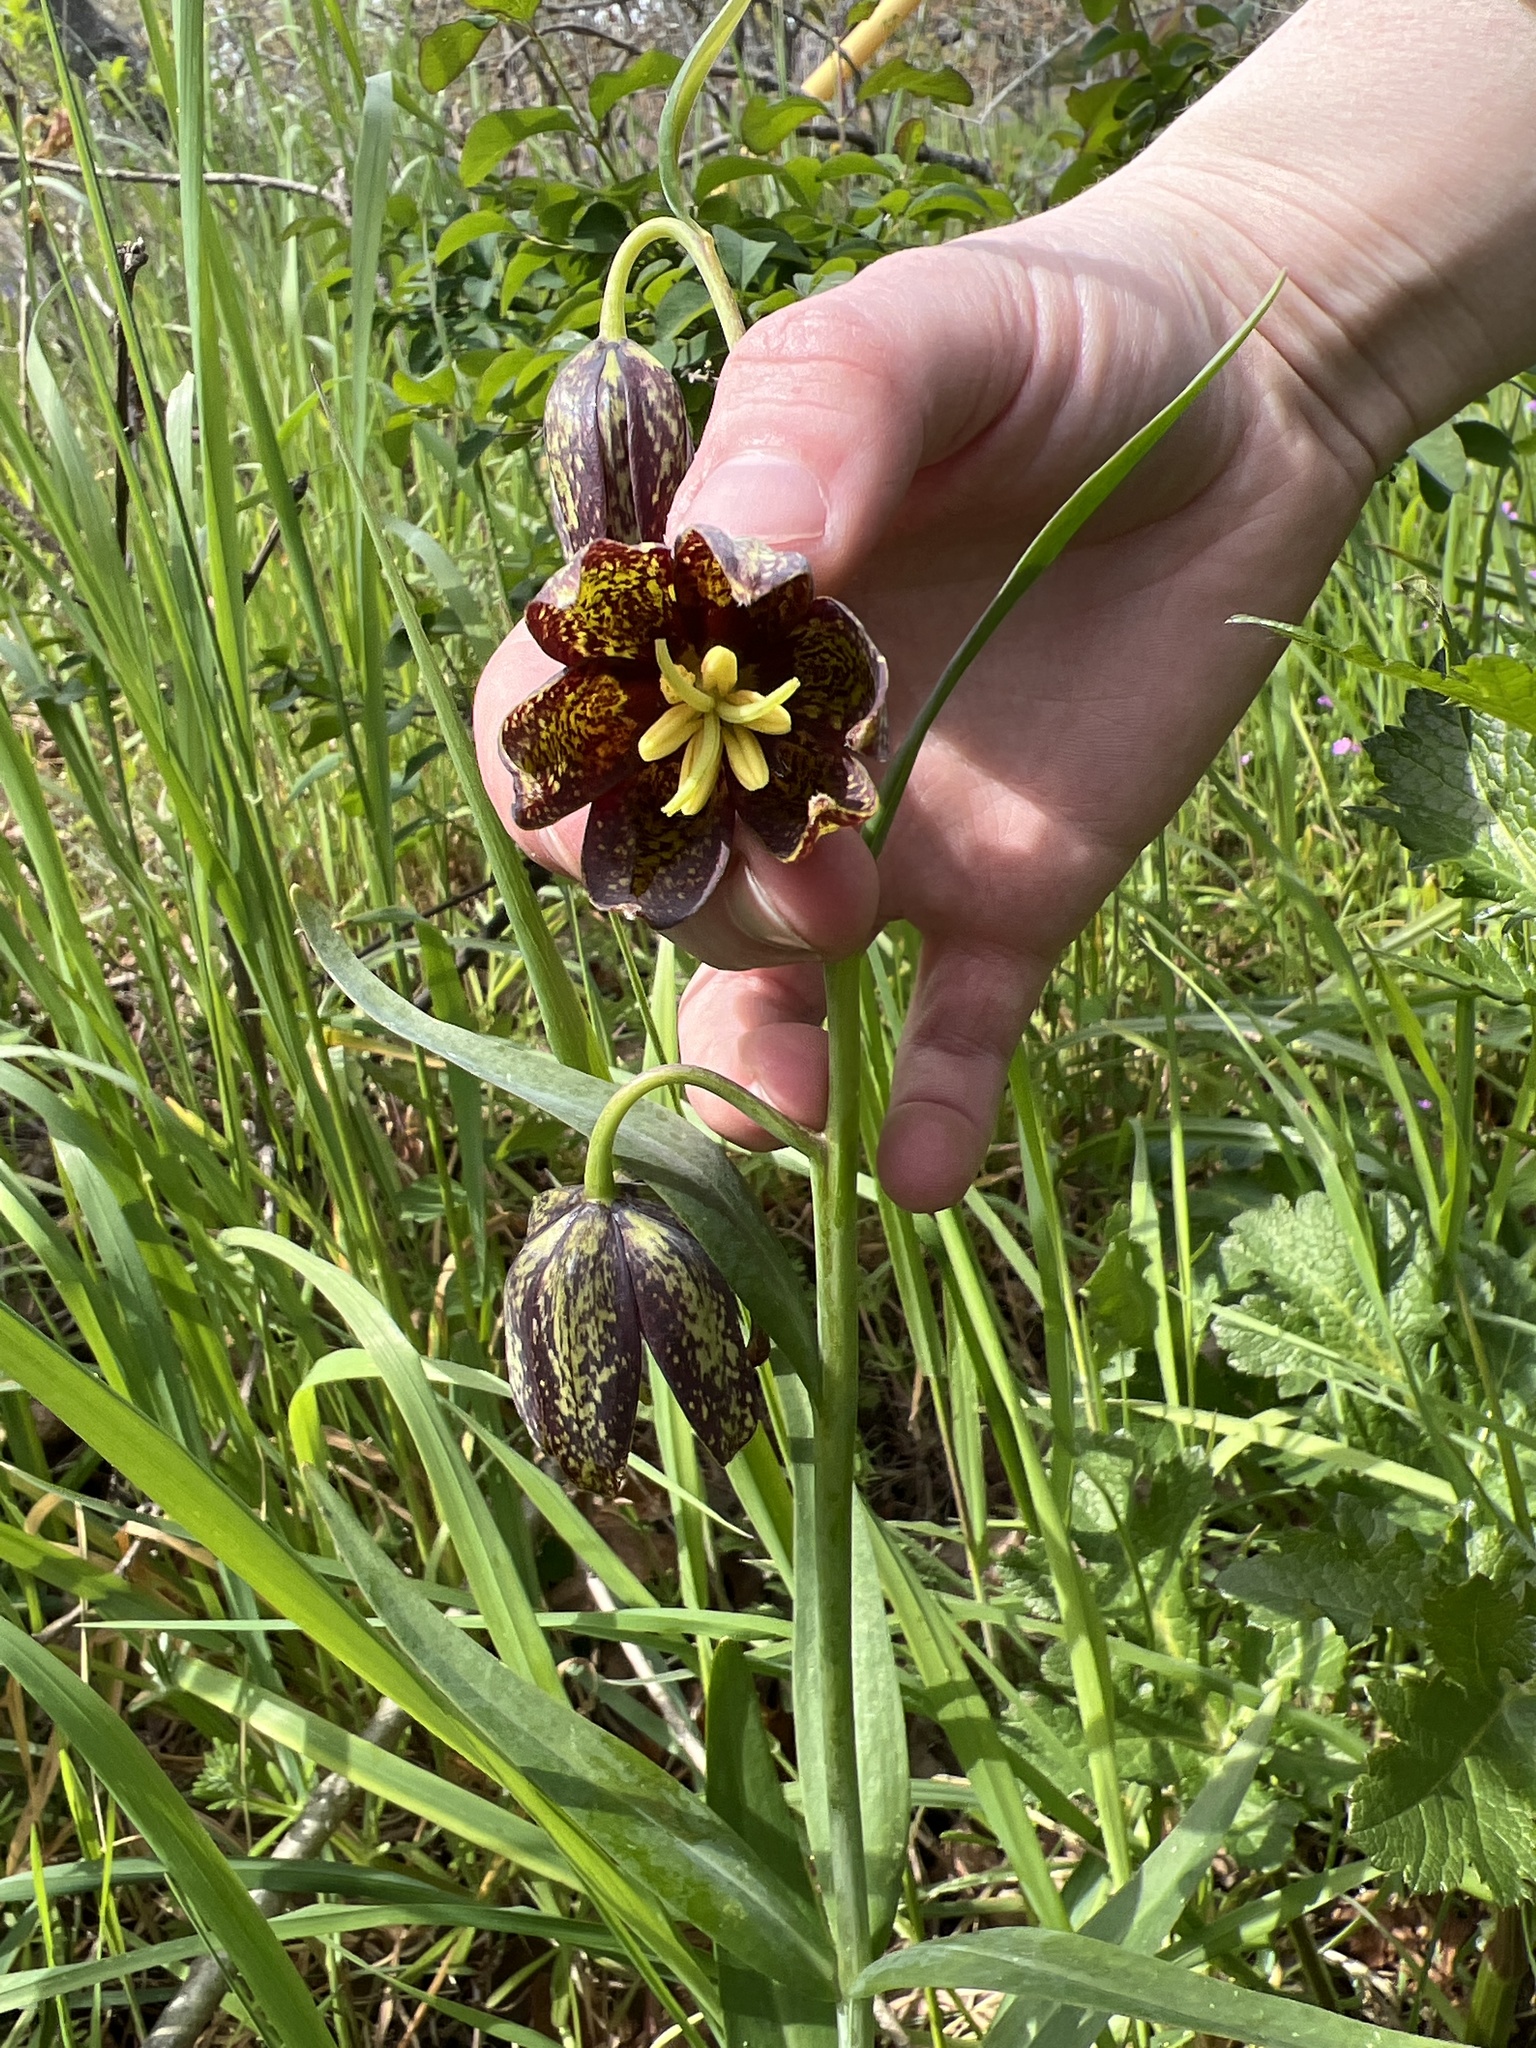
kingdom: Plantae
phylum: Tracheophyta
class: Liliopsida
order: Liliales
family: Liliaceae
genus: Fritillaria
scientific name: Fritillaria affinis
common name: Ojai fritillary
